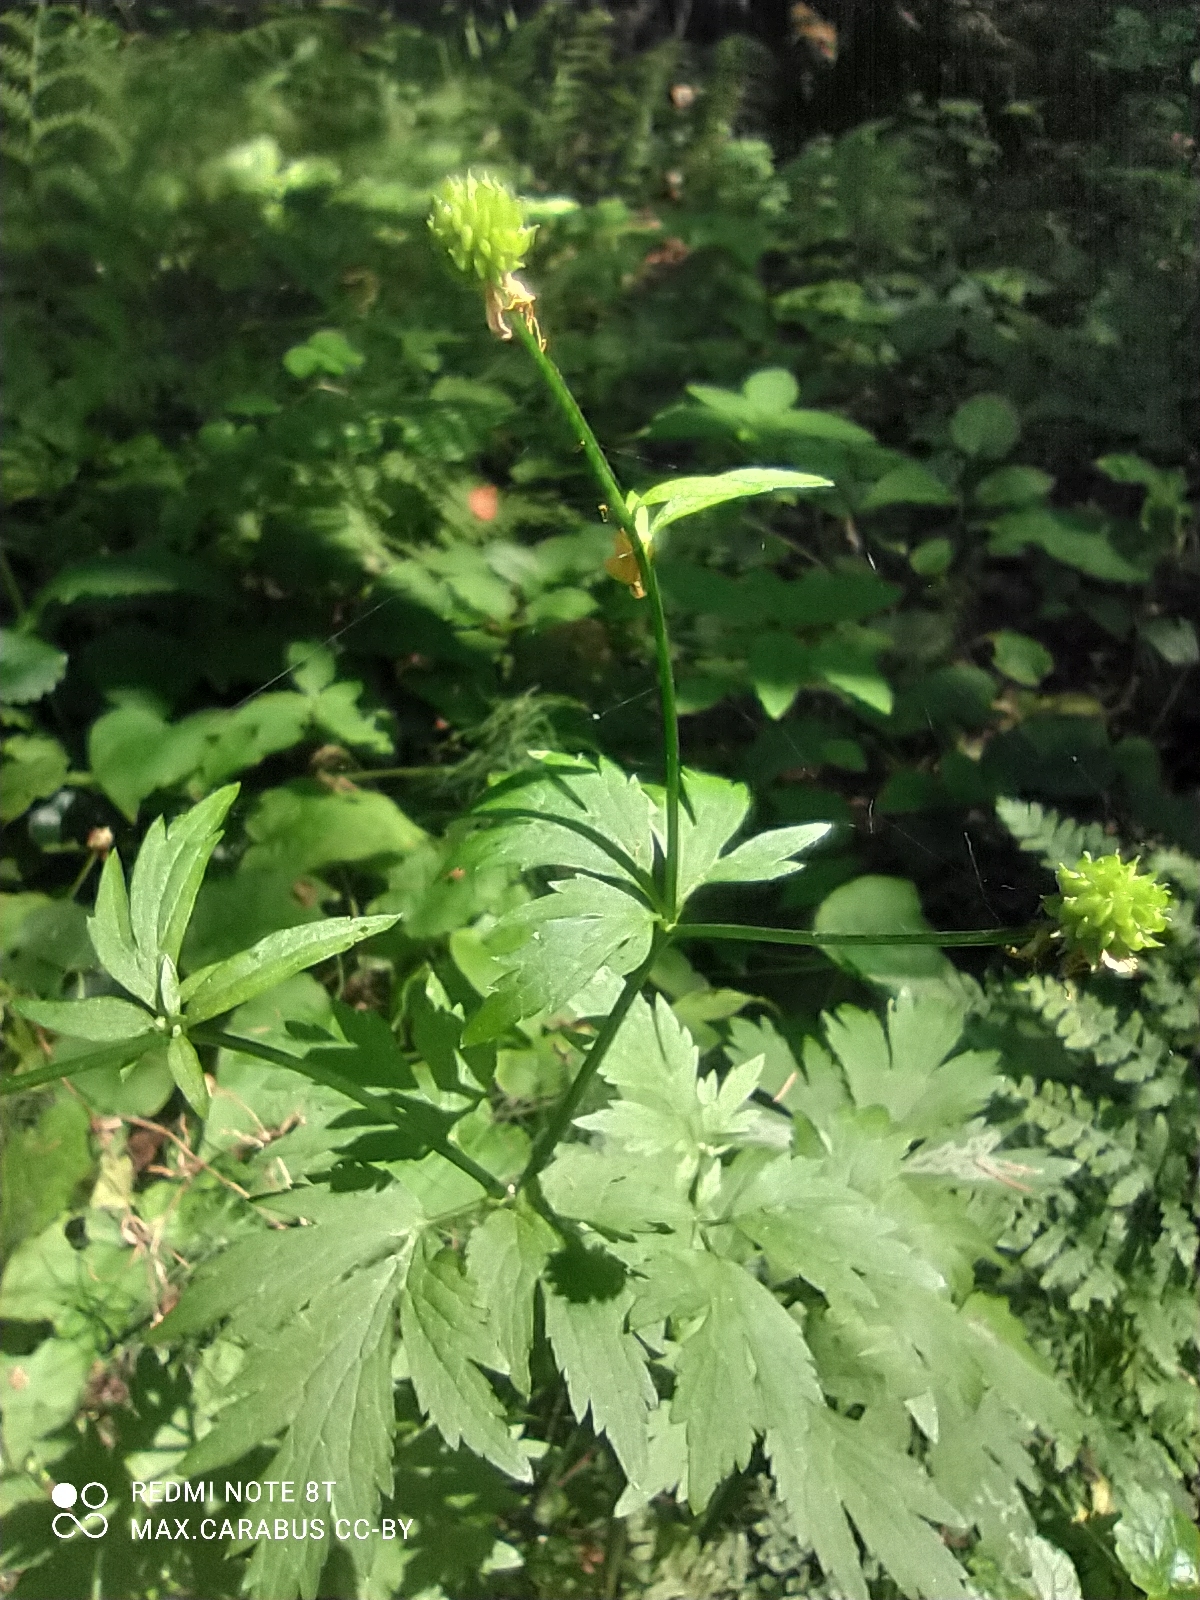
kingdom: Plantae
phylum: Tracheophyta
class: Magnoliopsida
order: Ranunculales
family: Ranunculaceae
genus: Ranunculus
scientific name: Ranunculus repens
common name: Creeping buttercup
